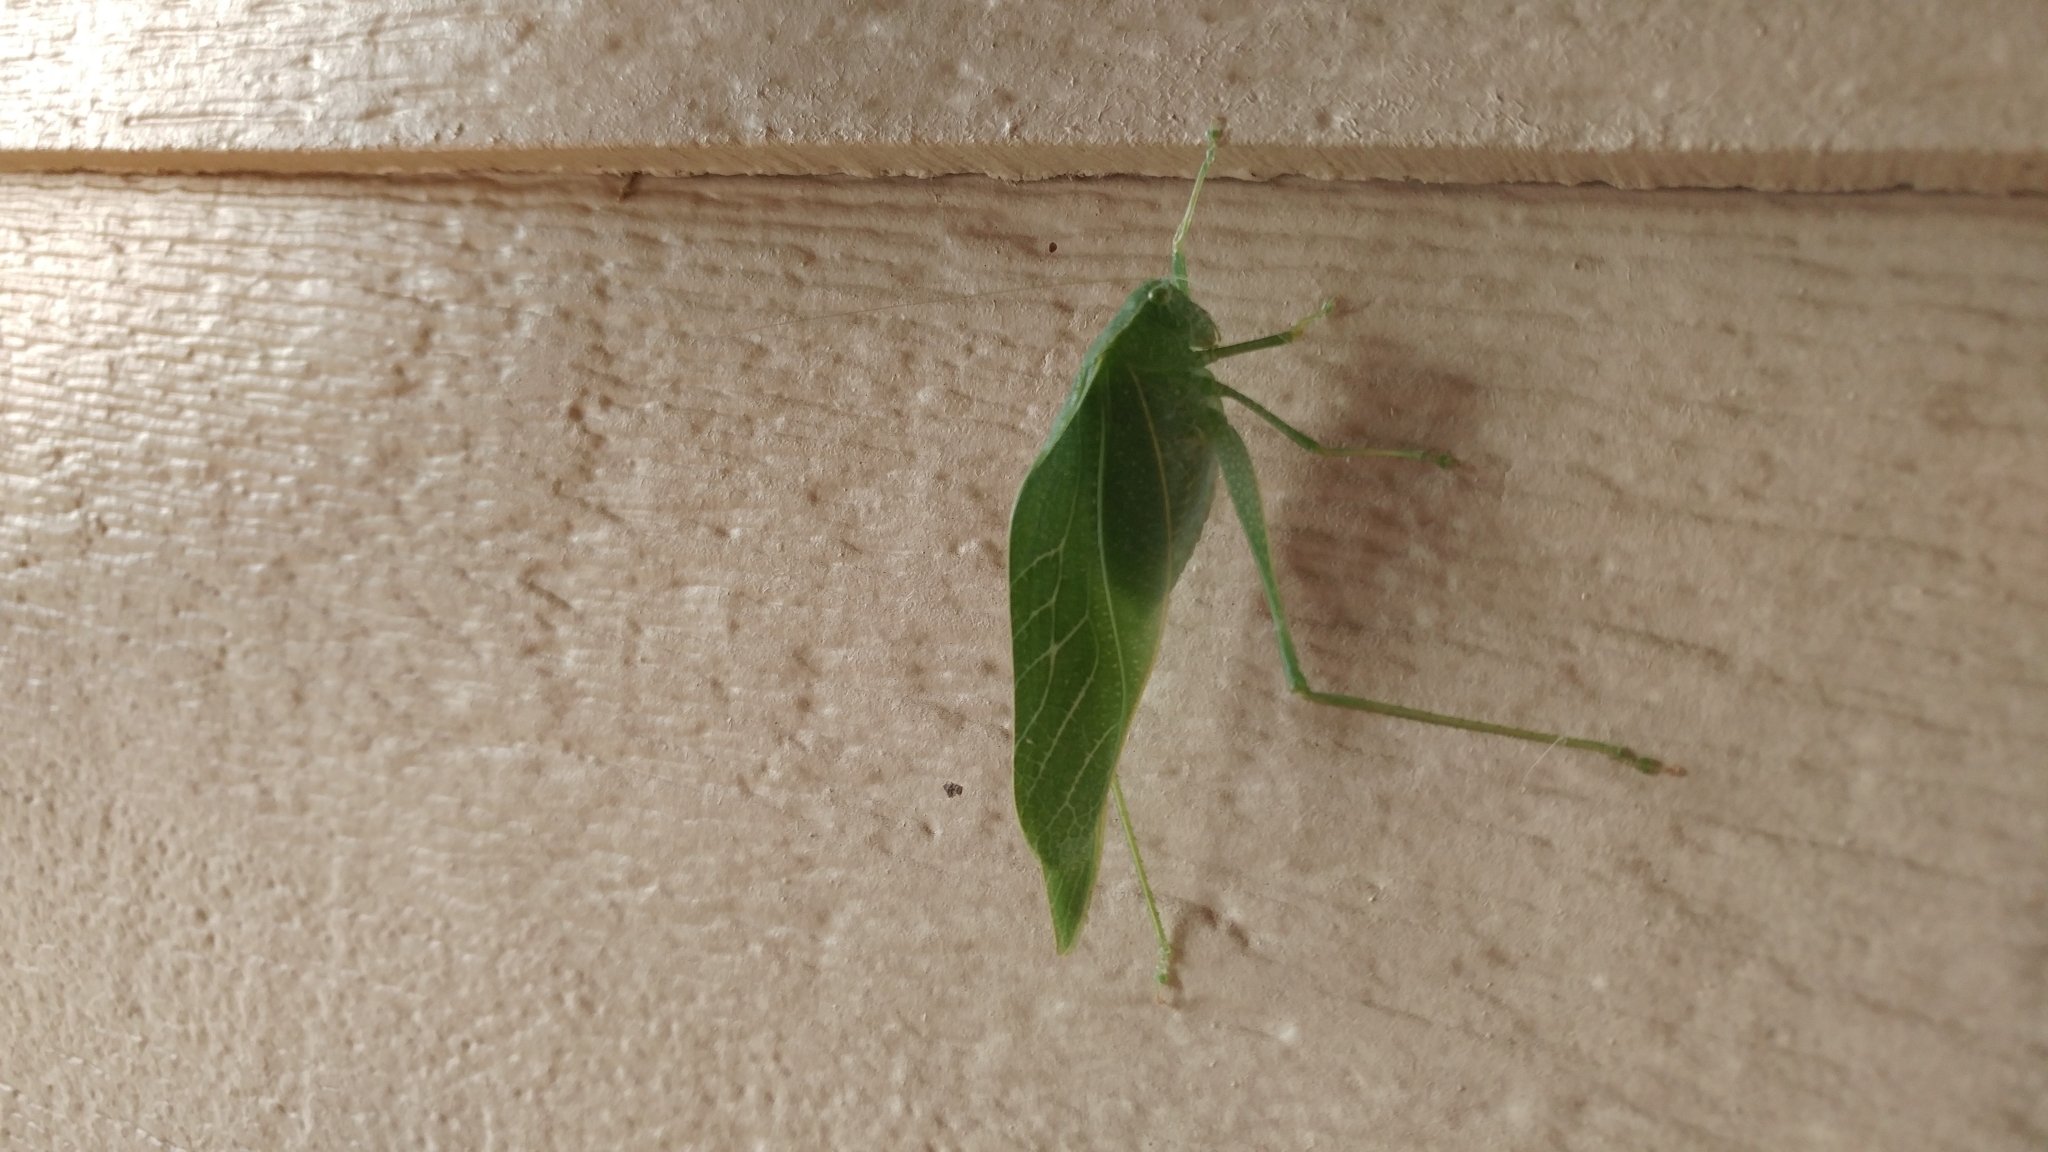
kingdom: Animalia
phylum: Arthropoda
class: Insecta
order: Orthoptera
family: Tettigoniidae
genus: Microcentrum
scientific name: Microcentrum rhombifolium
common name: Broad-winged katydid
